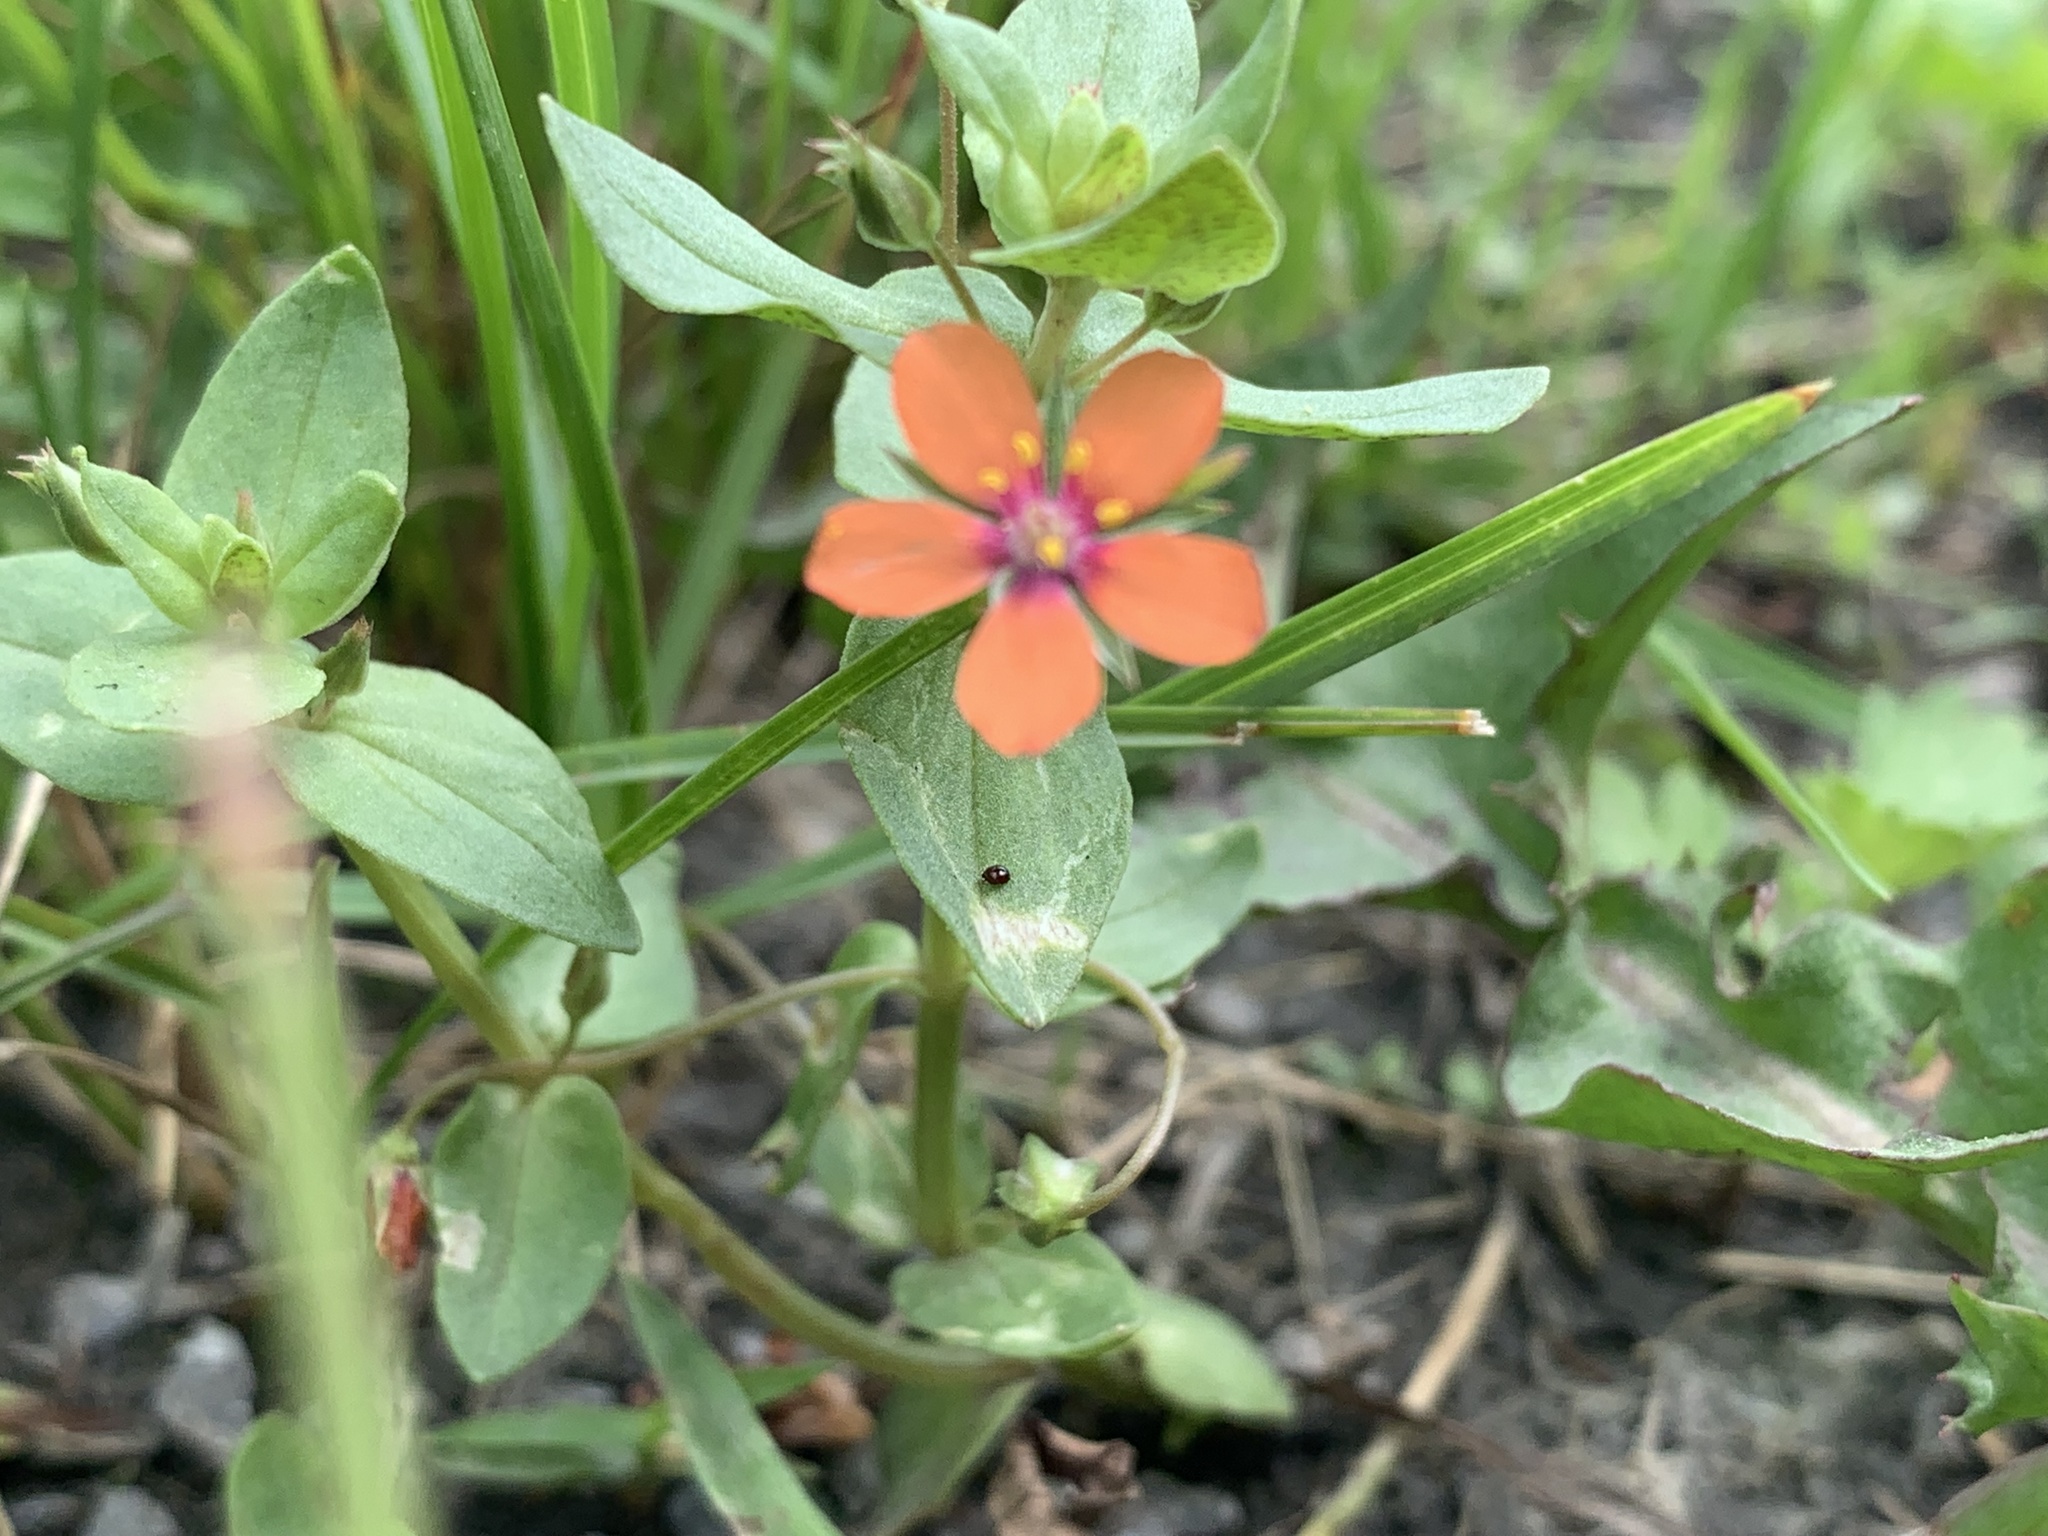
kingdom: Plantae
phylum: Tracheophyta
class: Magnoliopsida
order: Ericales
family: Primulaceae
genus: Lysimachia
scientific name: Lysimachia arvensis
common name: Scarlet pimpernel
